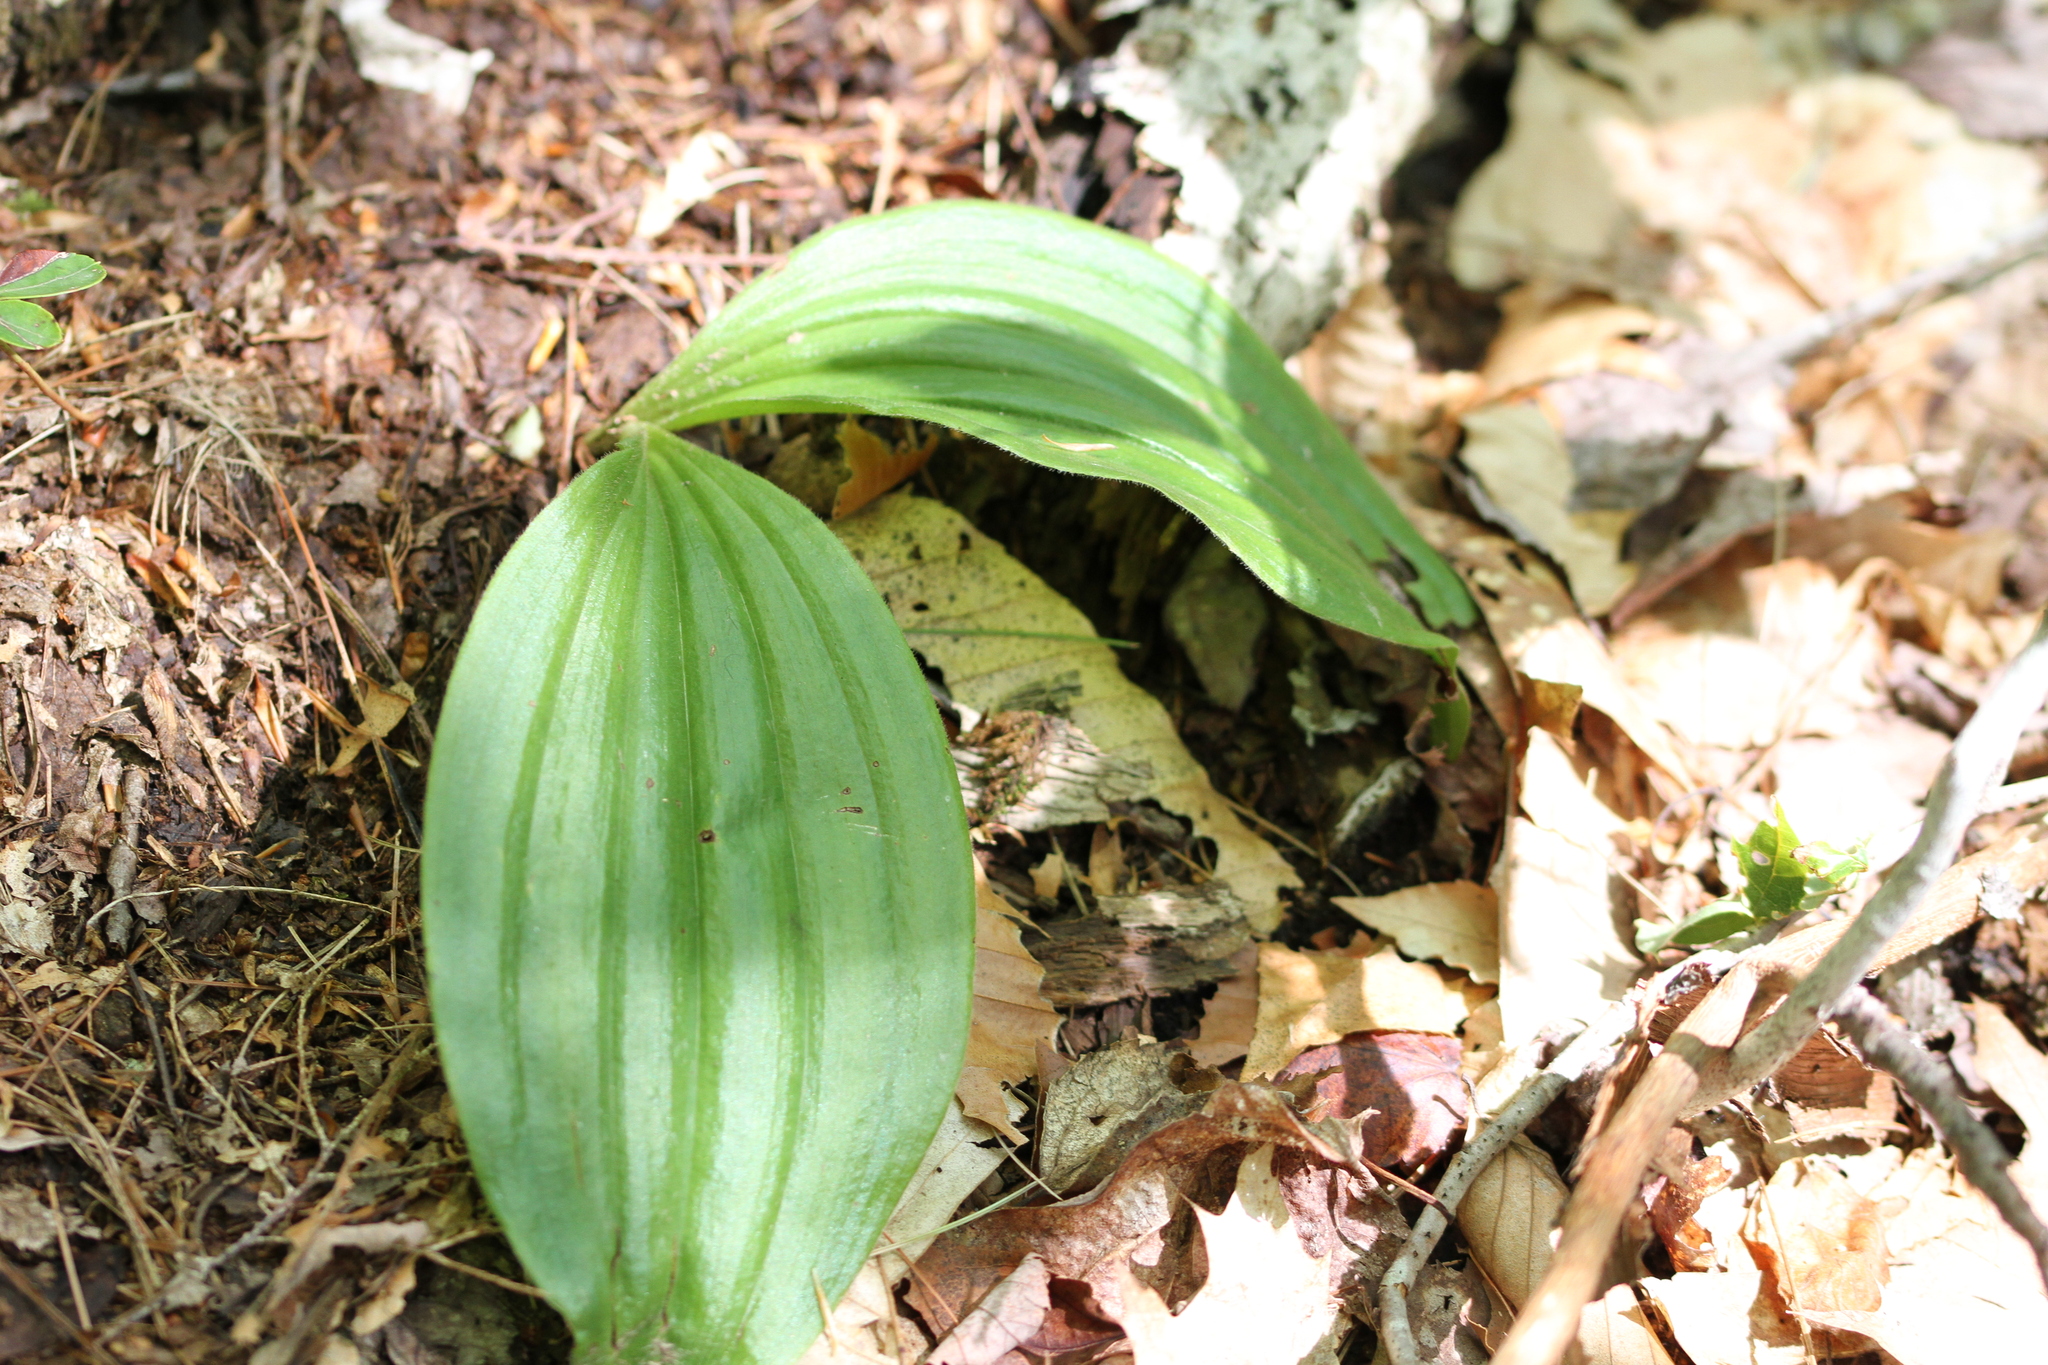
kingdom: Plantae
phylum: Tracheophyta
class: Liliopsida
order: Asparagales
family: Orchidaceae
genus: Cypripedium
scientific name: Cypripedium acaule
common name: Pink lady's-slipper
